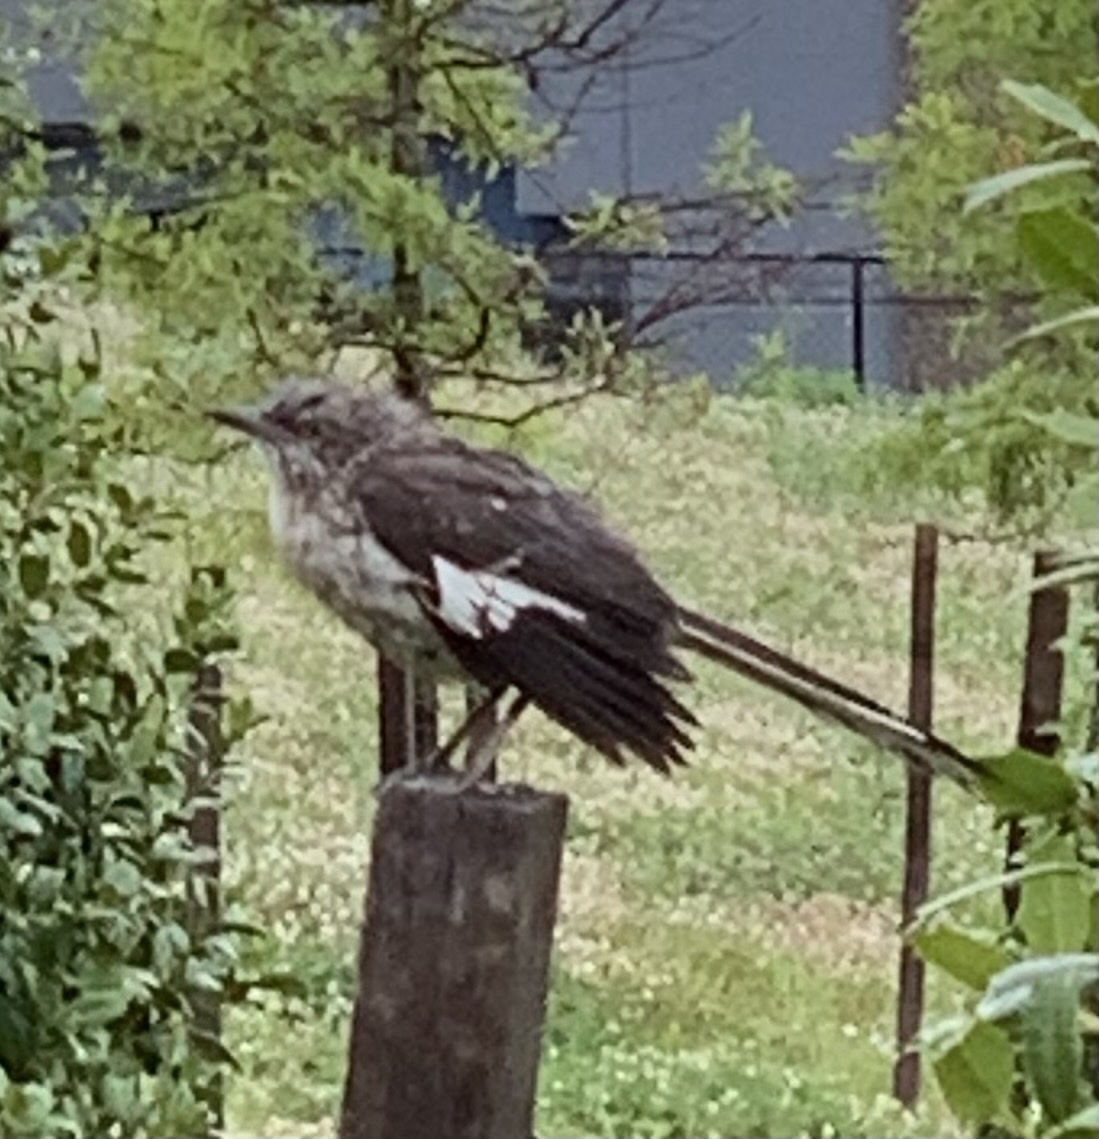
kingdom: Animalia
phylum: Chordata
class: Aves
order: Passeriformes
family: Mimidae
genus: Mimus
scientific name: Mimus polyglottos
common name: Northern mockingbird
